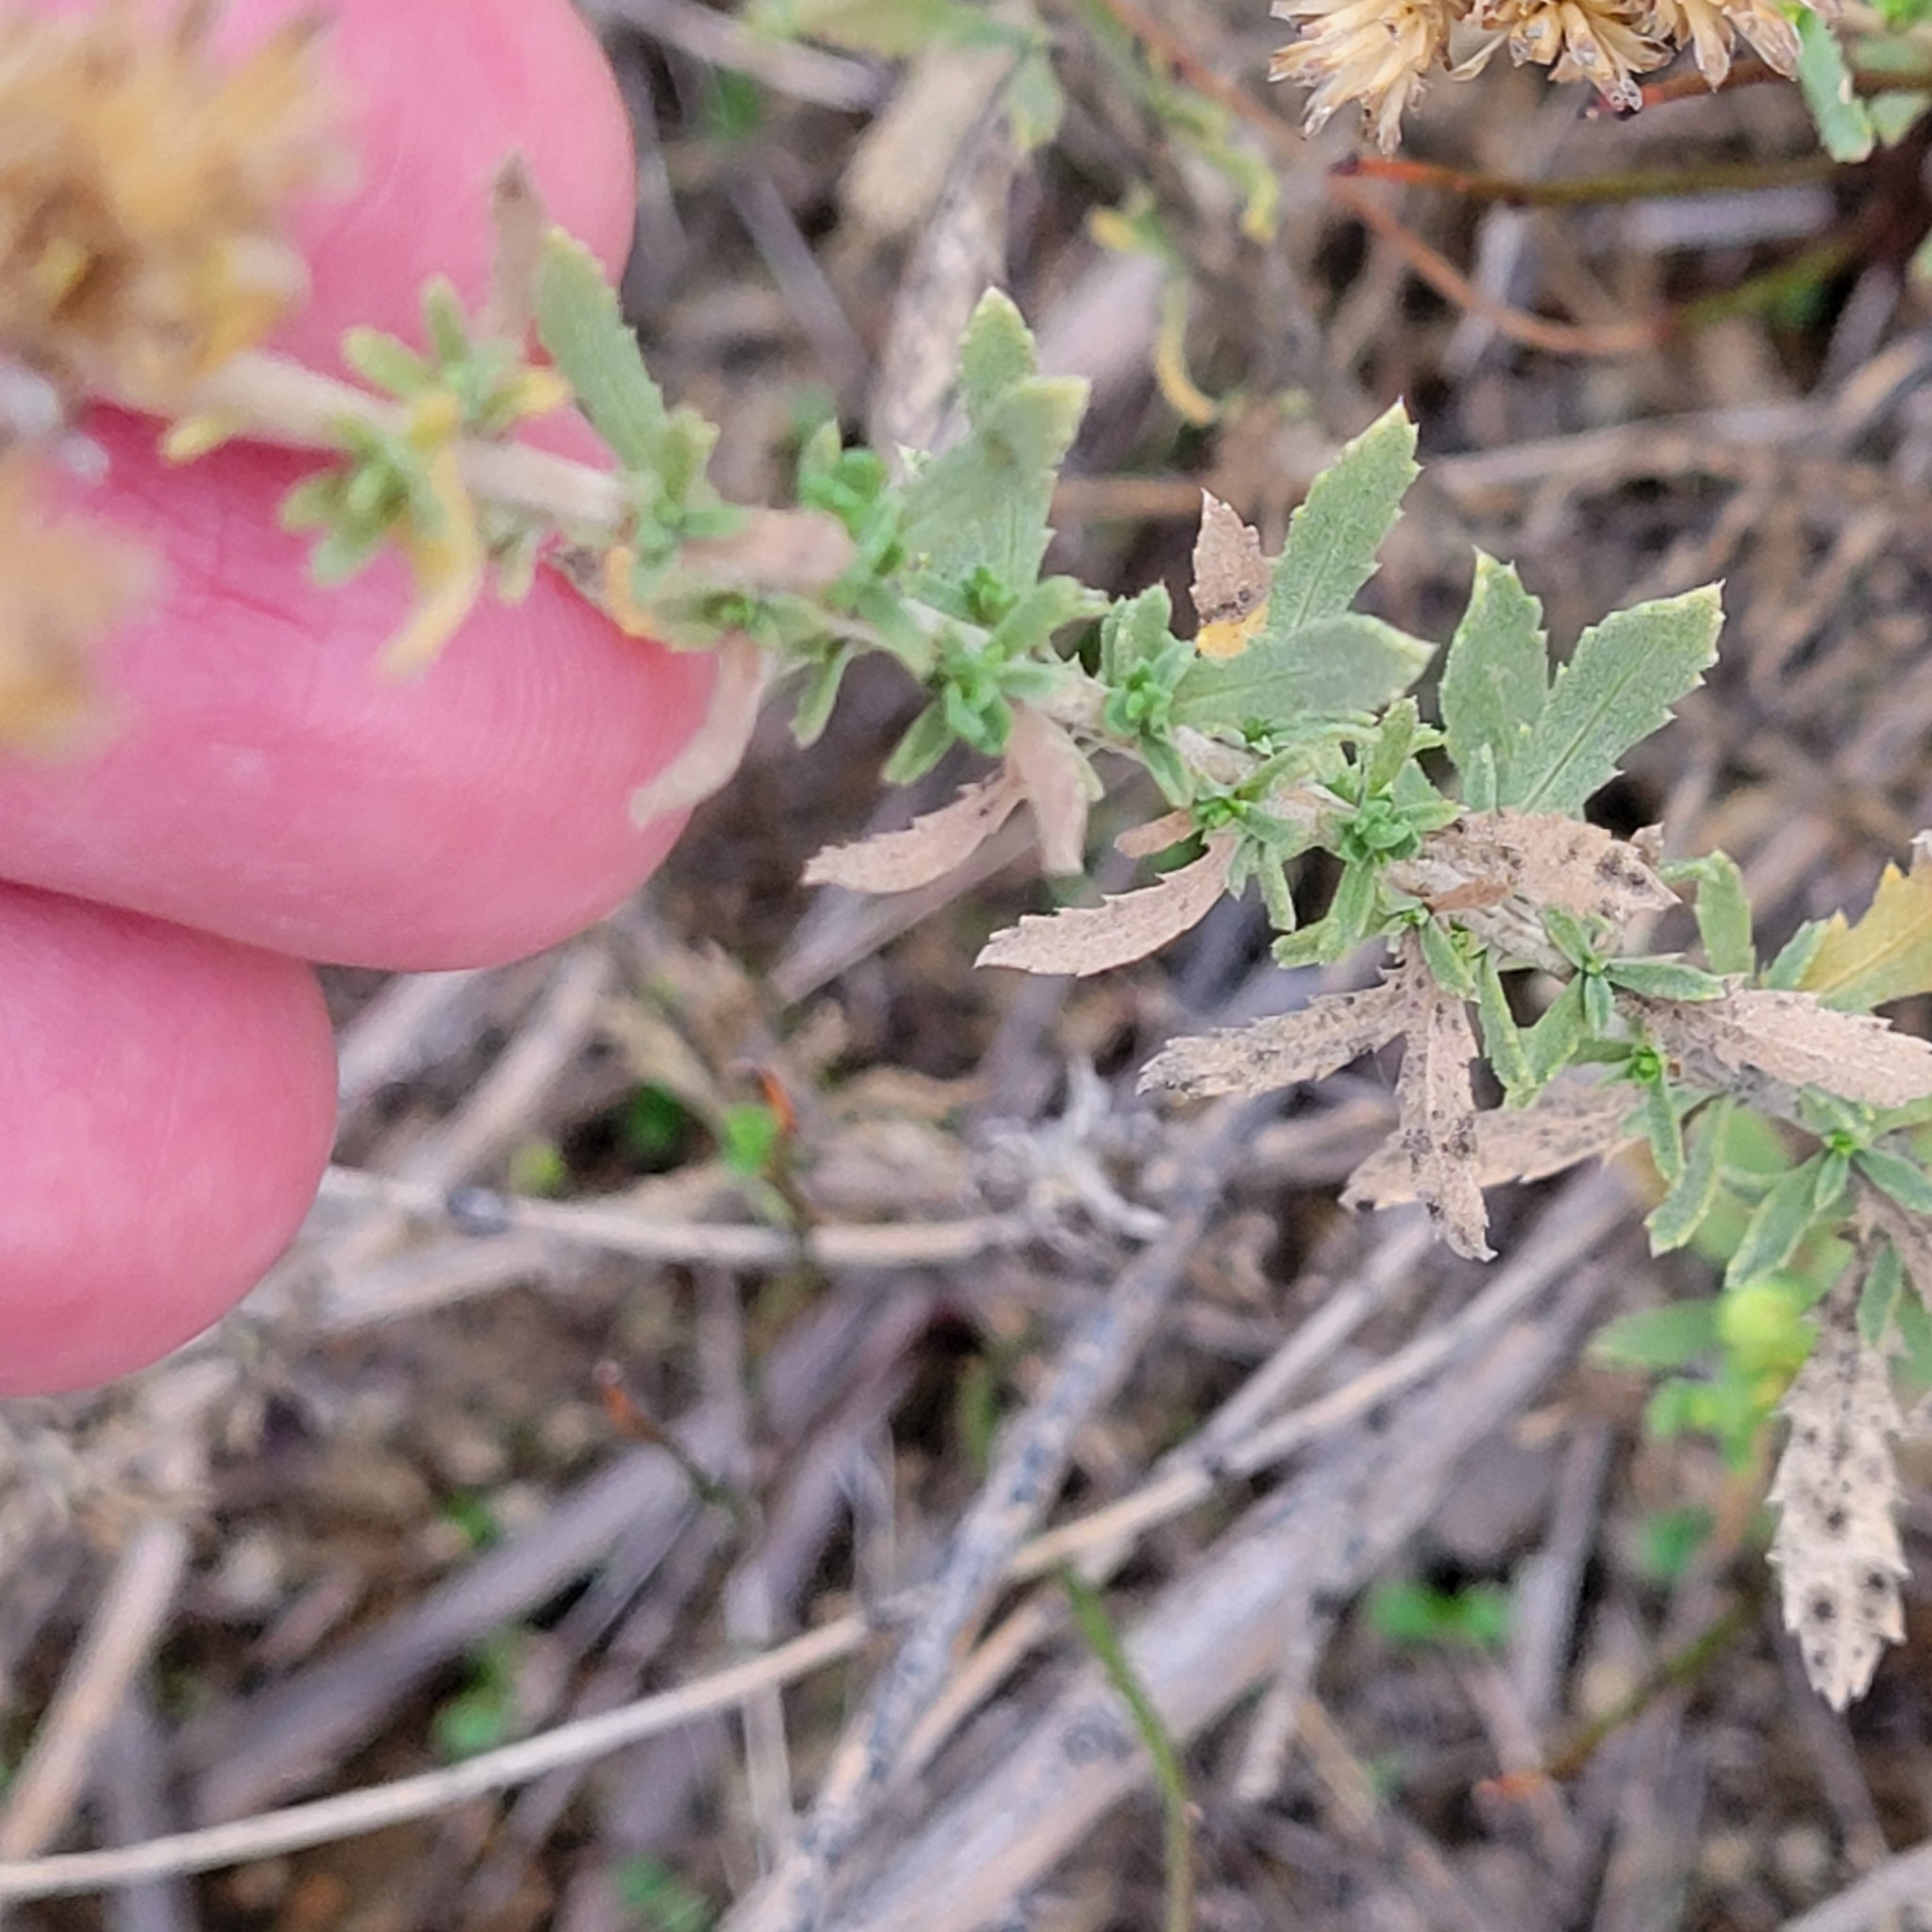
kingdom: Plantae
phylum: Tracheophyta
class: Magnoliopsida
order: Asterales
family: Asteraceae
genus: Isocoma
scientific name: Isocoma menziesii
